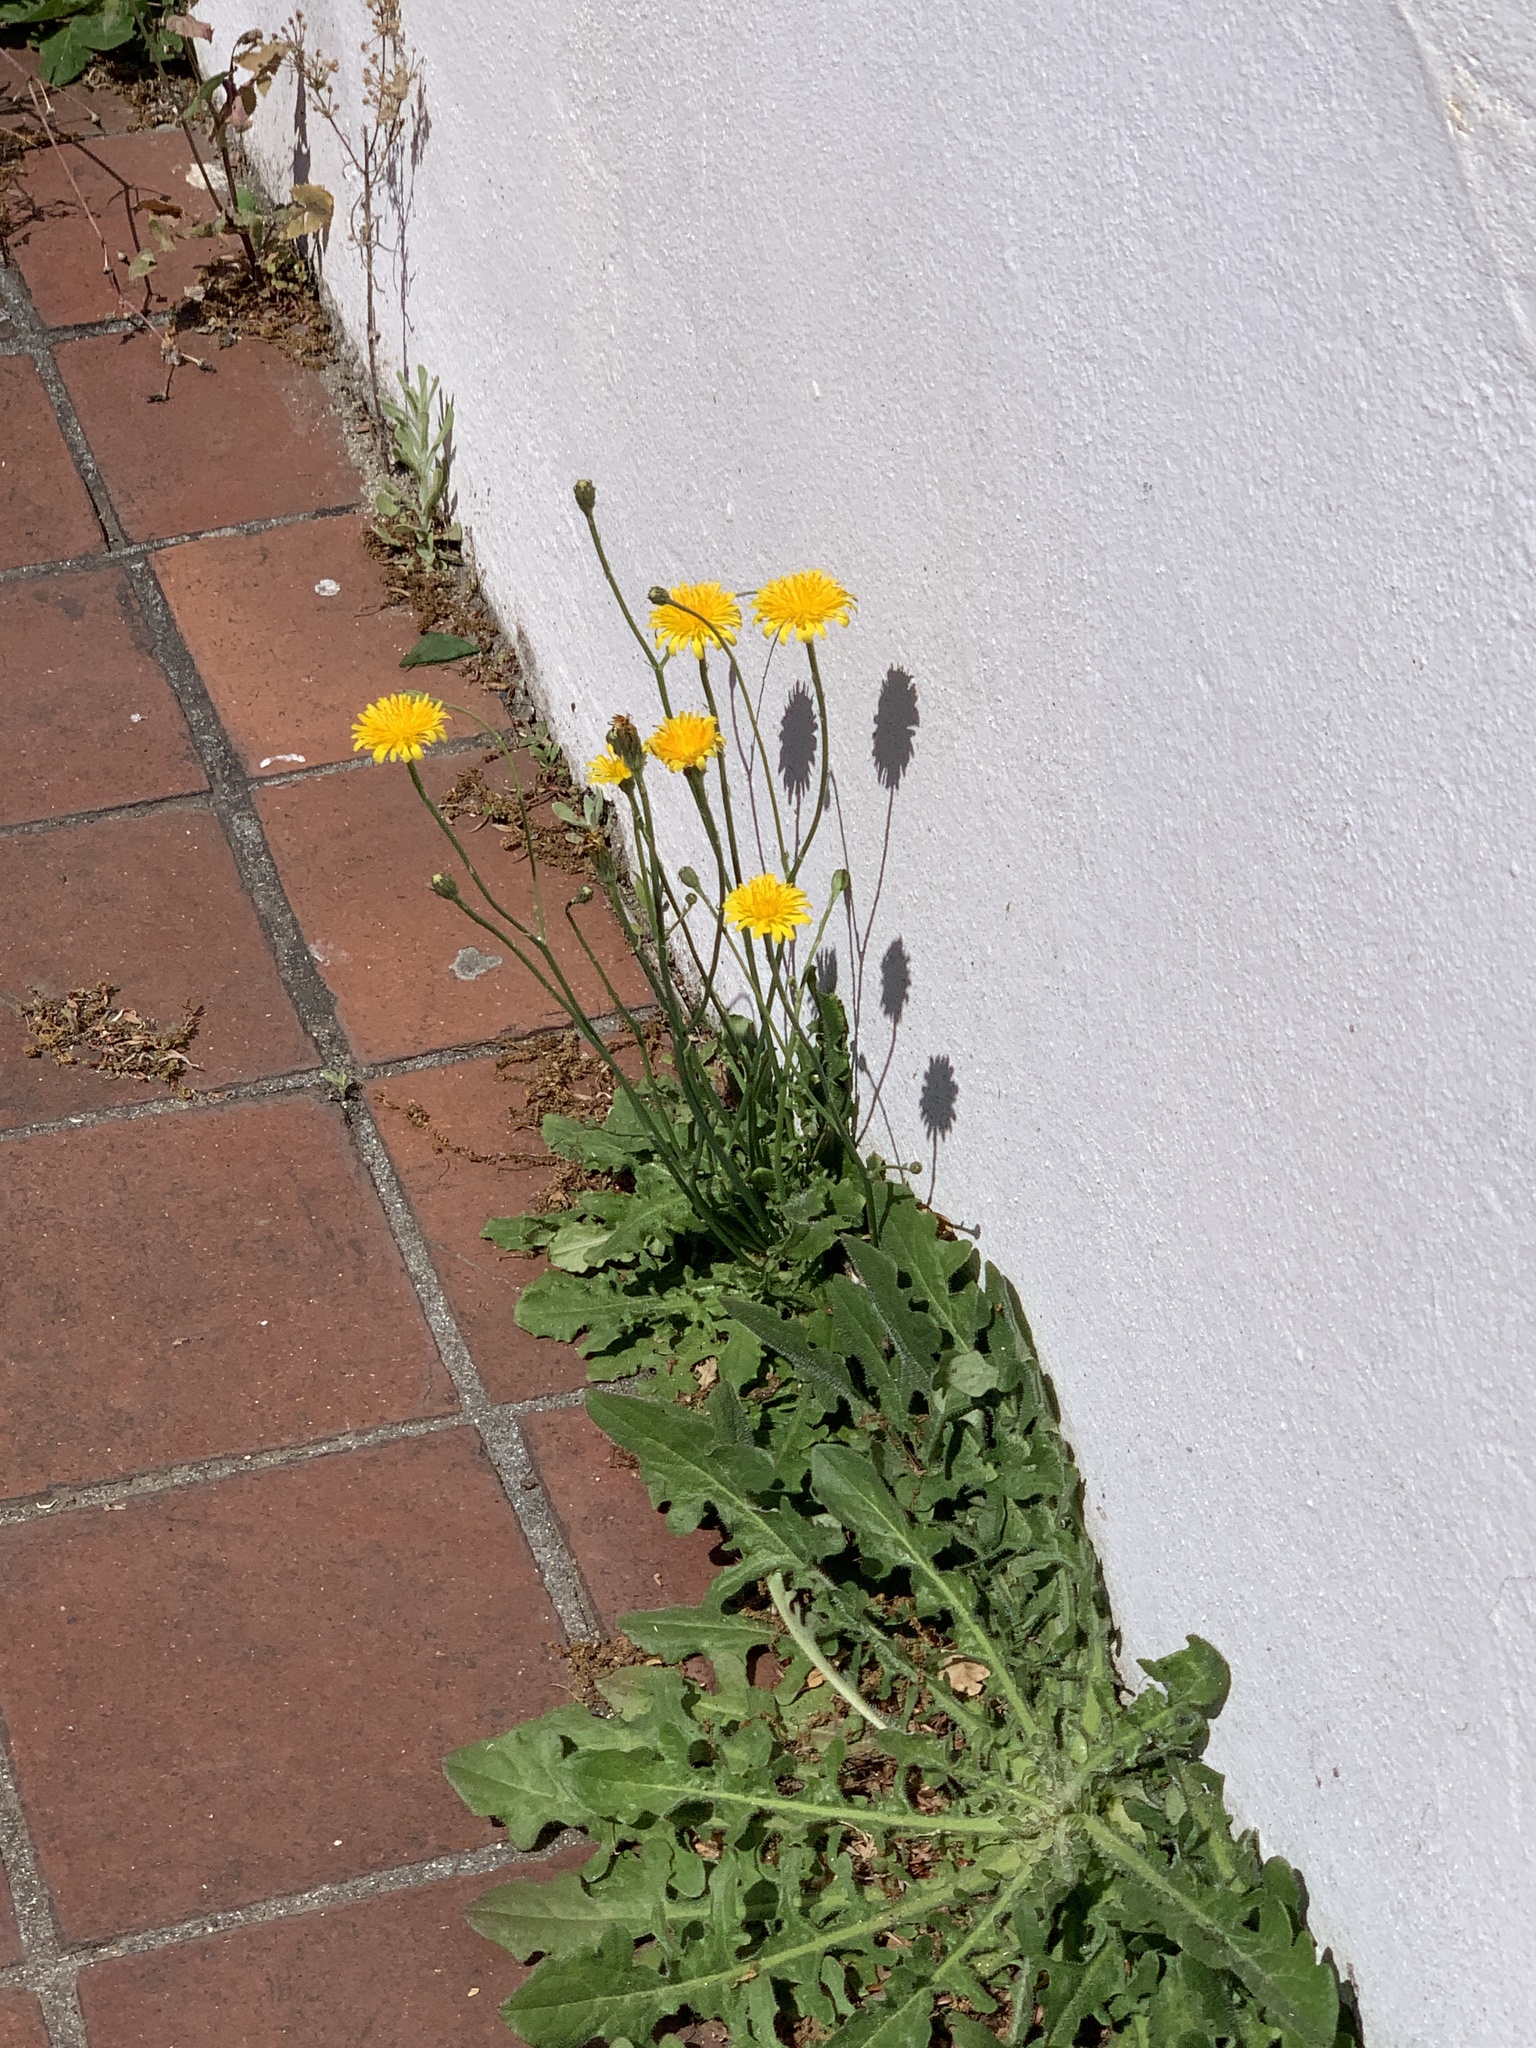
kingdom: Plantae
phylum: Tracheophyta
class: Magnoliopsida
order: Asterales
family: Asteraceae
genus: Hypochaeris
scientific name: Hypochaeris radicata
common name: Flatweed
